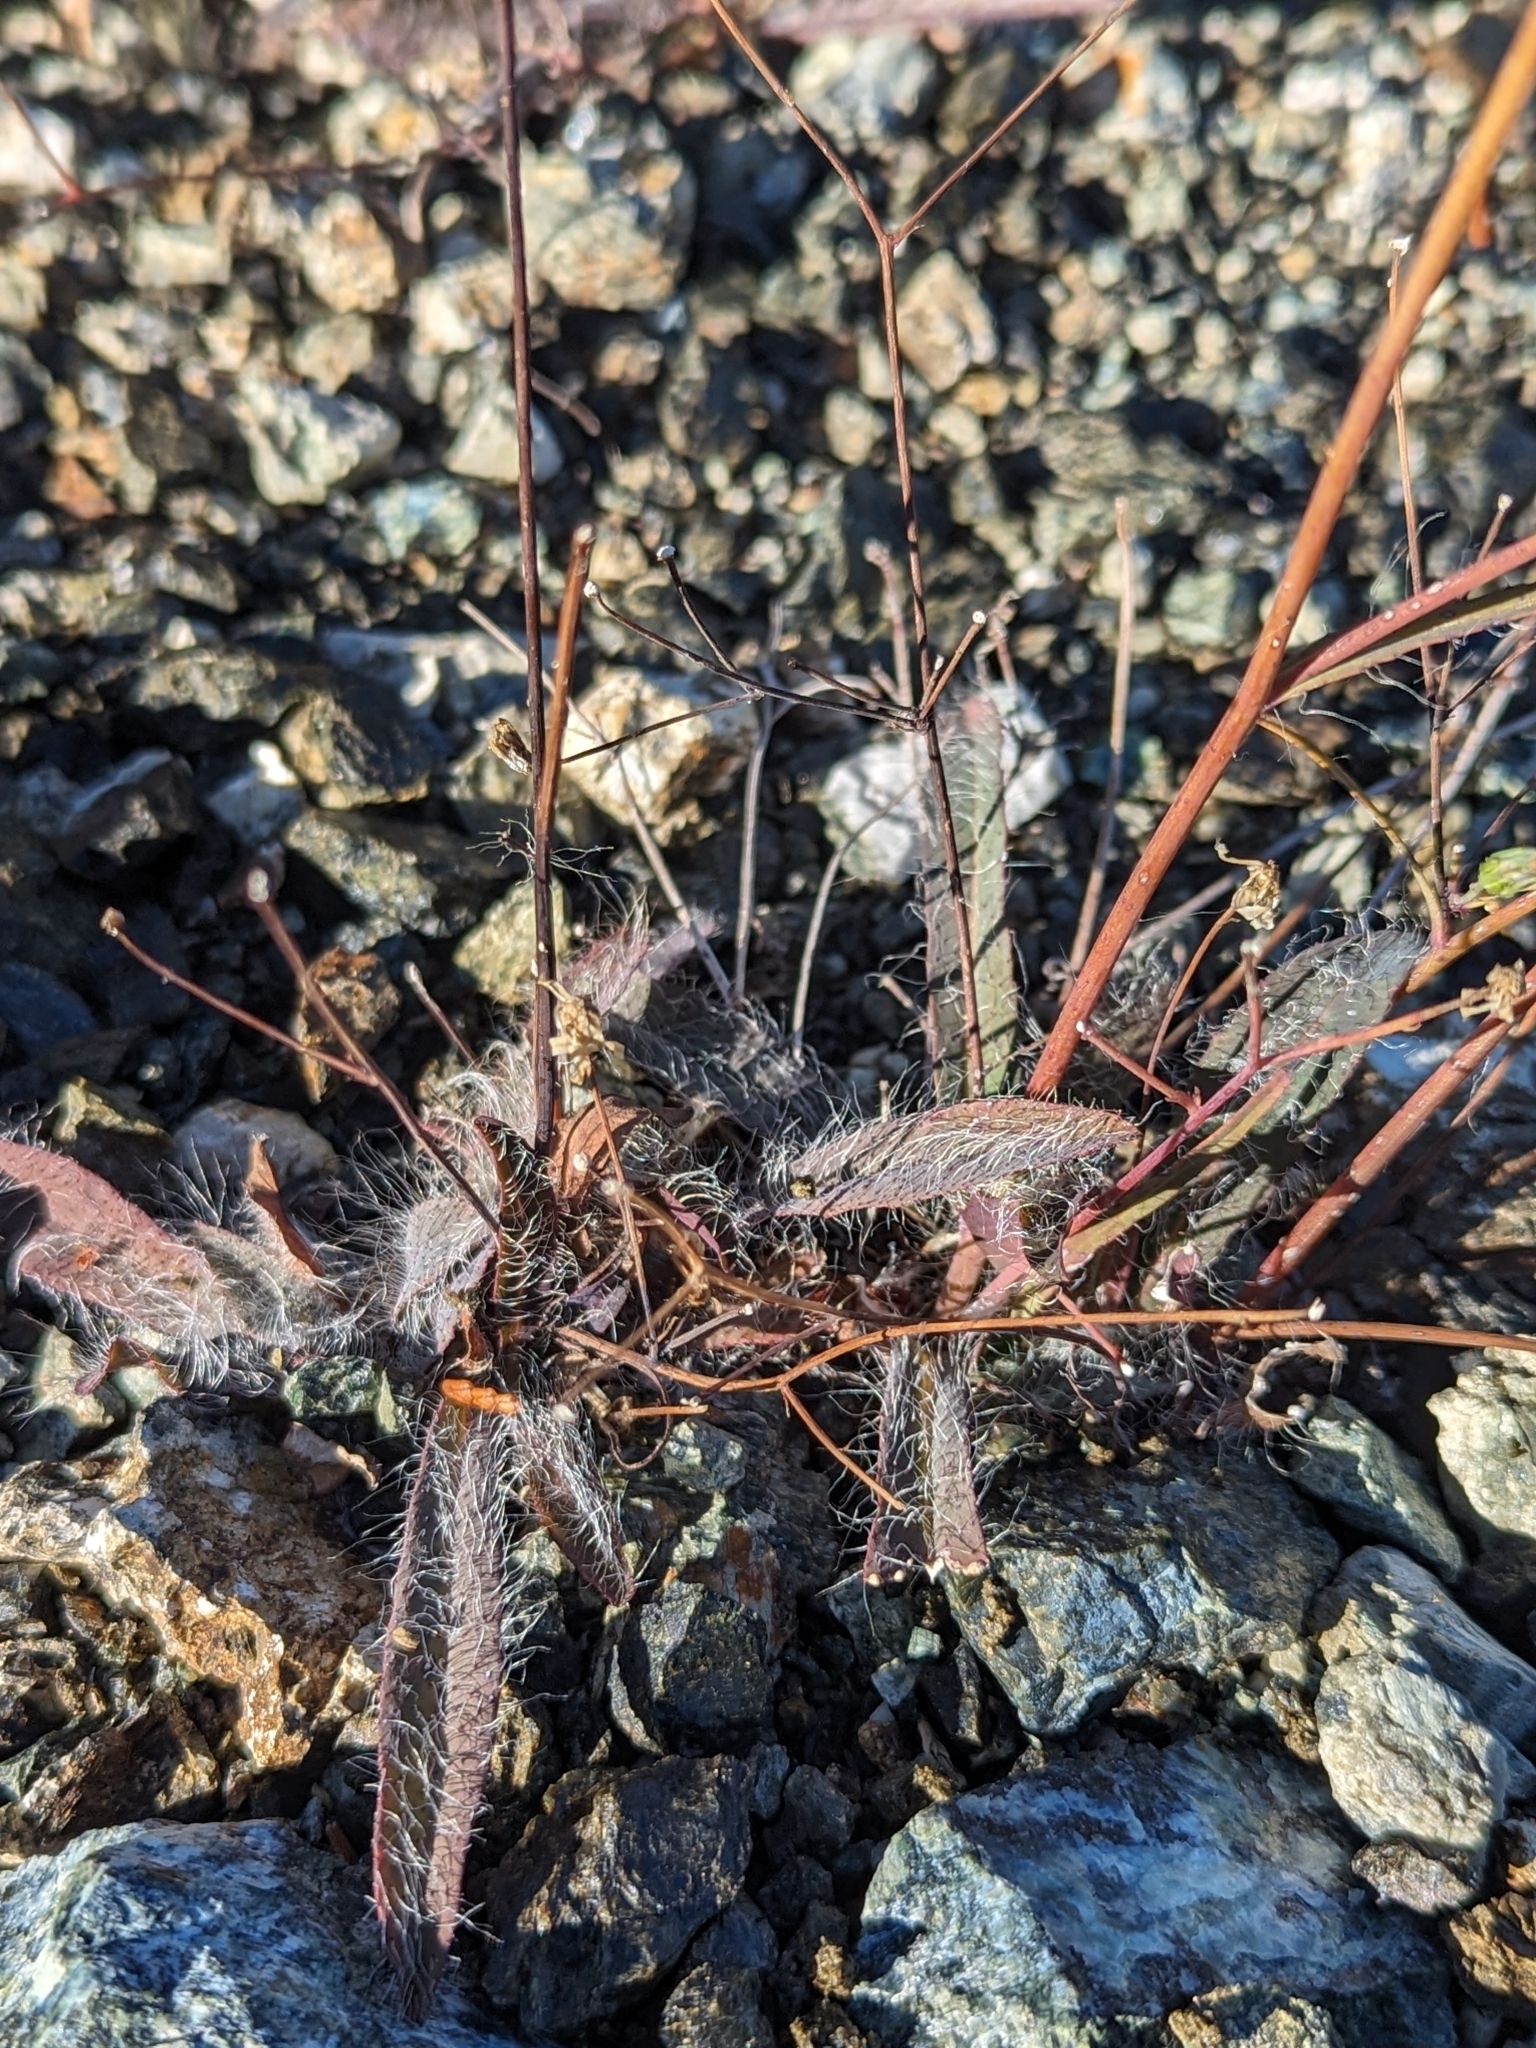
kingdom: Plantae
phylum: Tracheophyta
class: Magnoliopsida
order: Asterales
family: Asteraceae
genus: Hieracium
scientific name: Hieracium bolanderi
